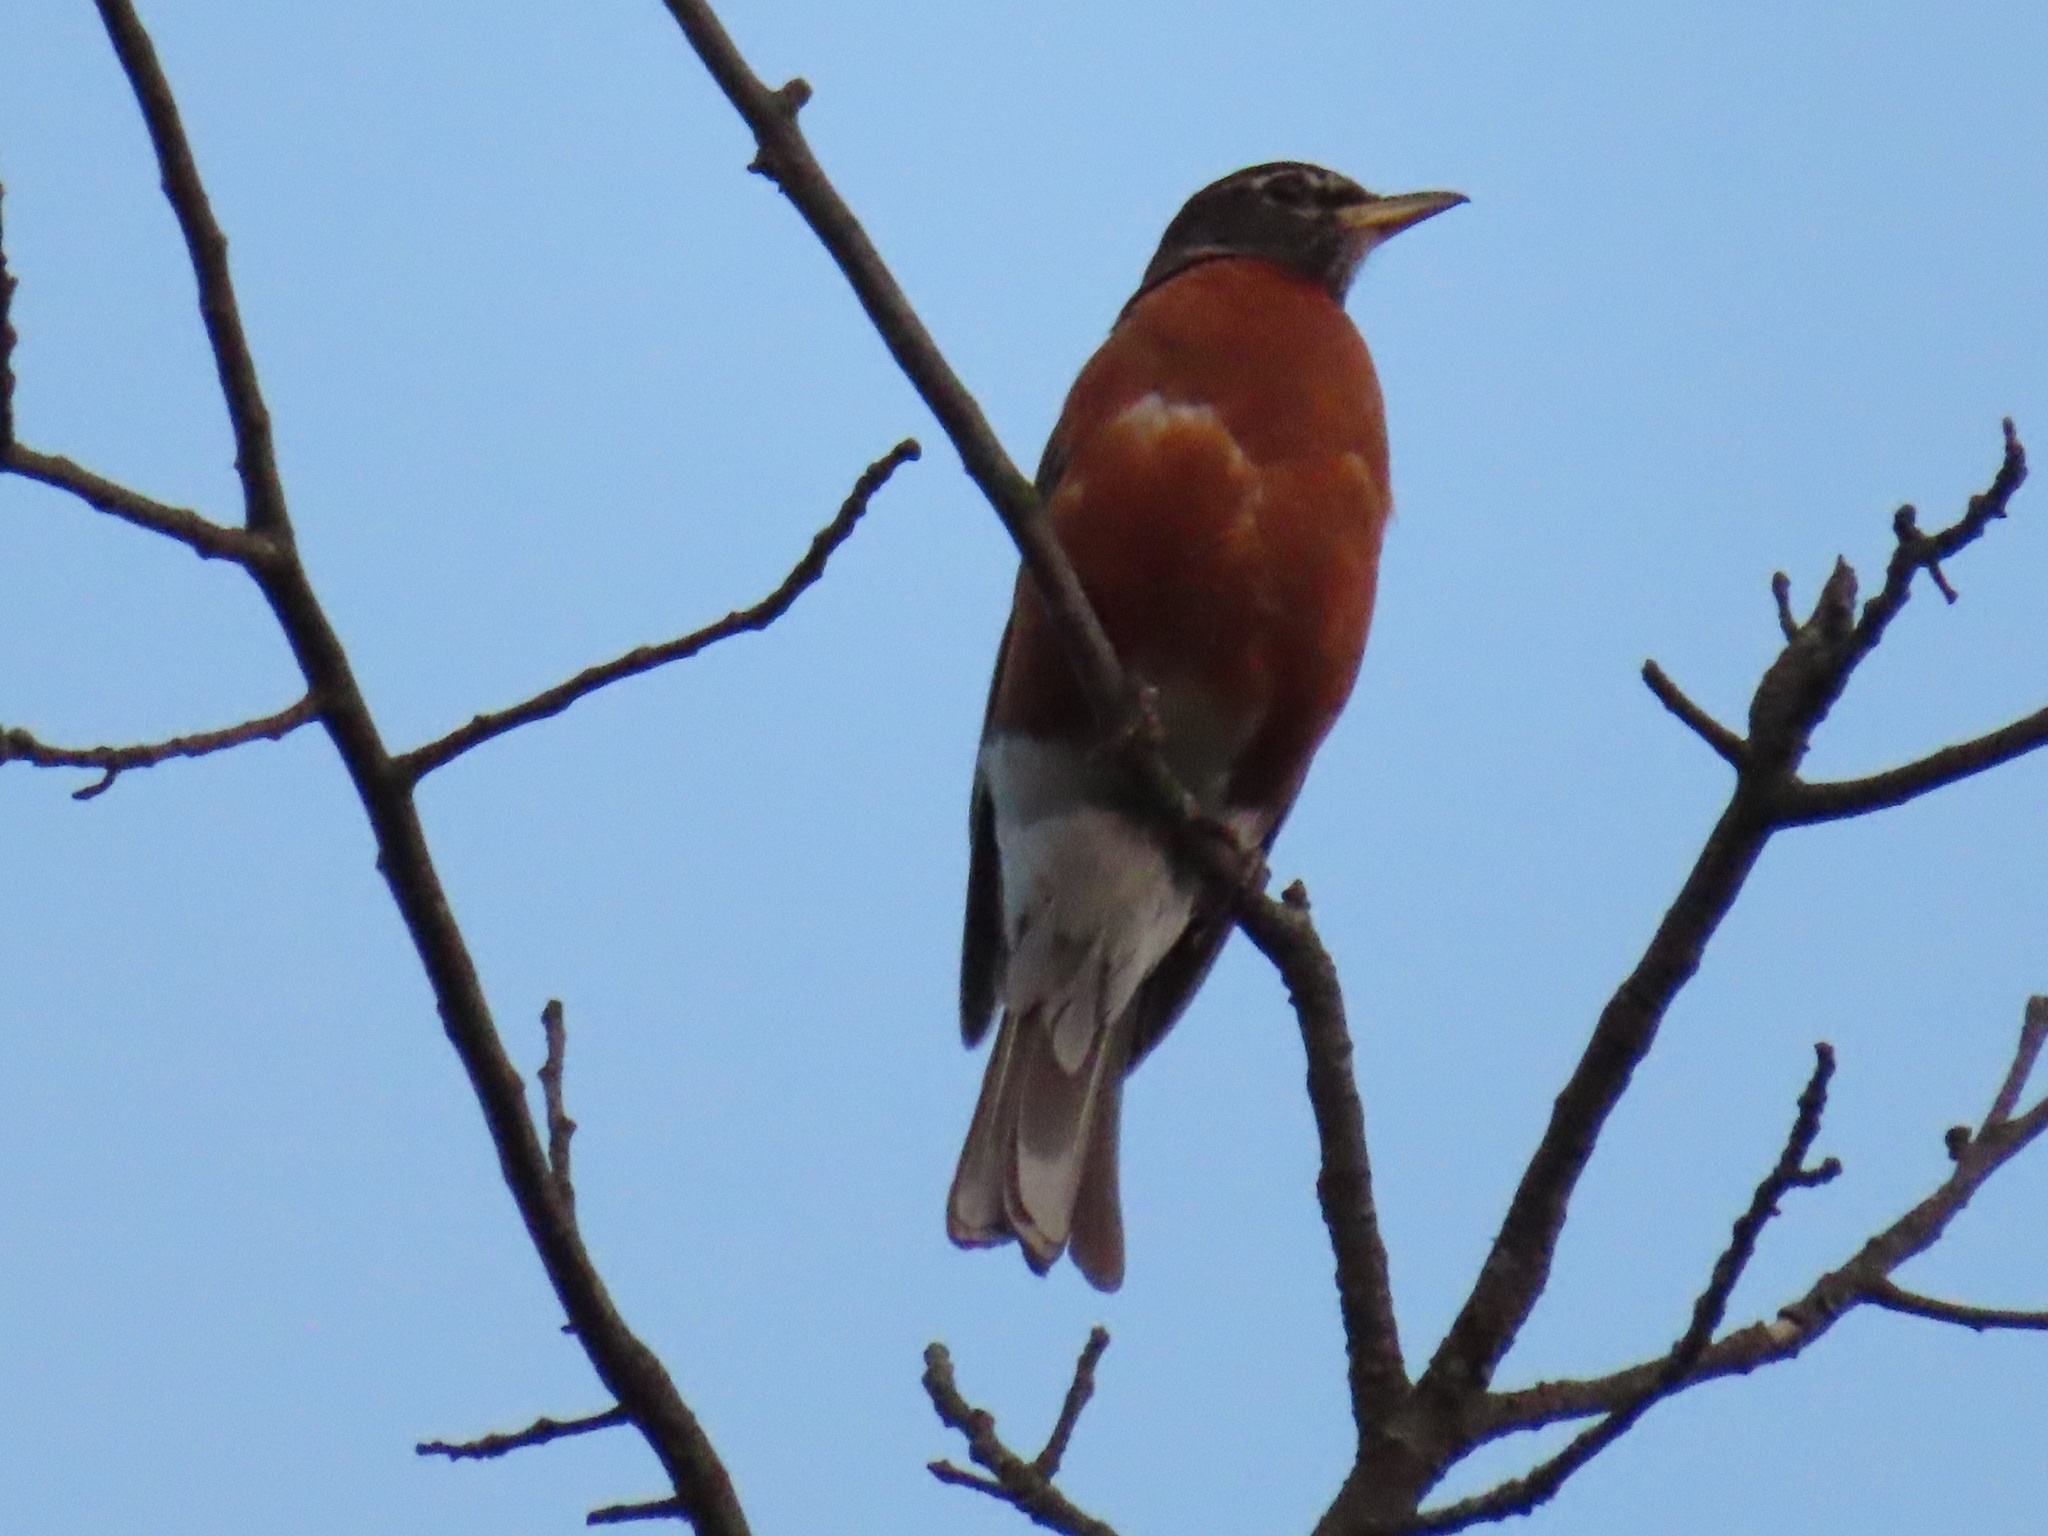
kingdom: Animalia
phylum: Chordata
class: Aves
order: Passeriformes
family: Turdidae
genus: Turdus
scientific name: Turdus migratorius
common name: American robin
